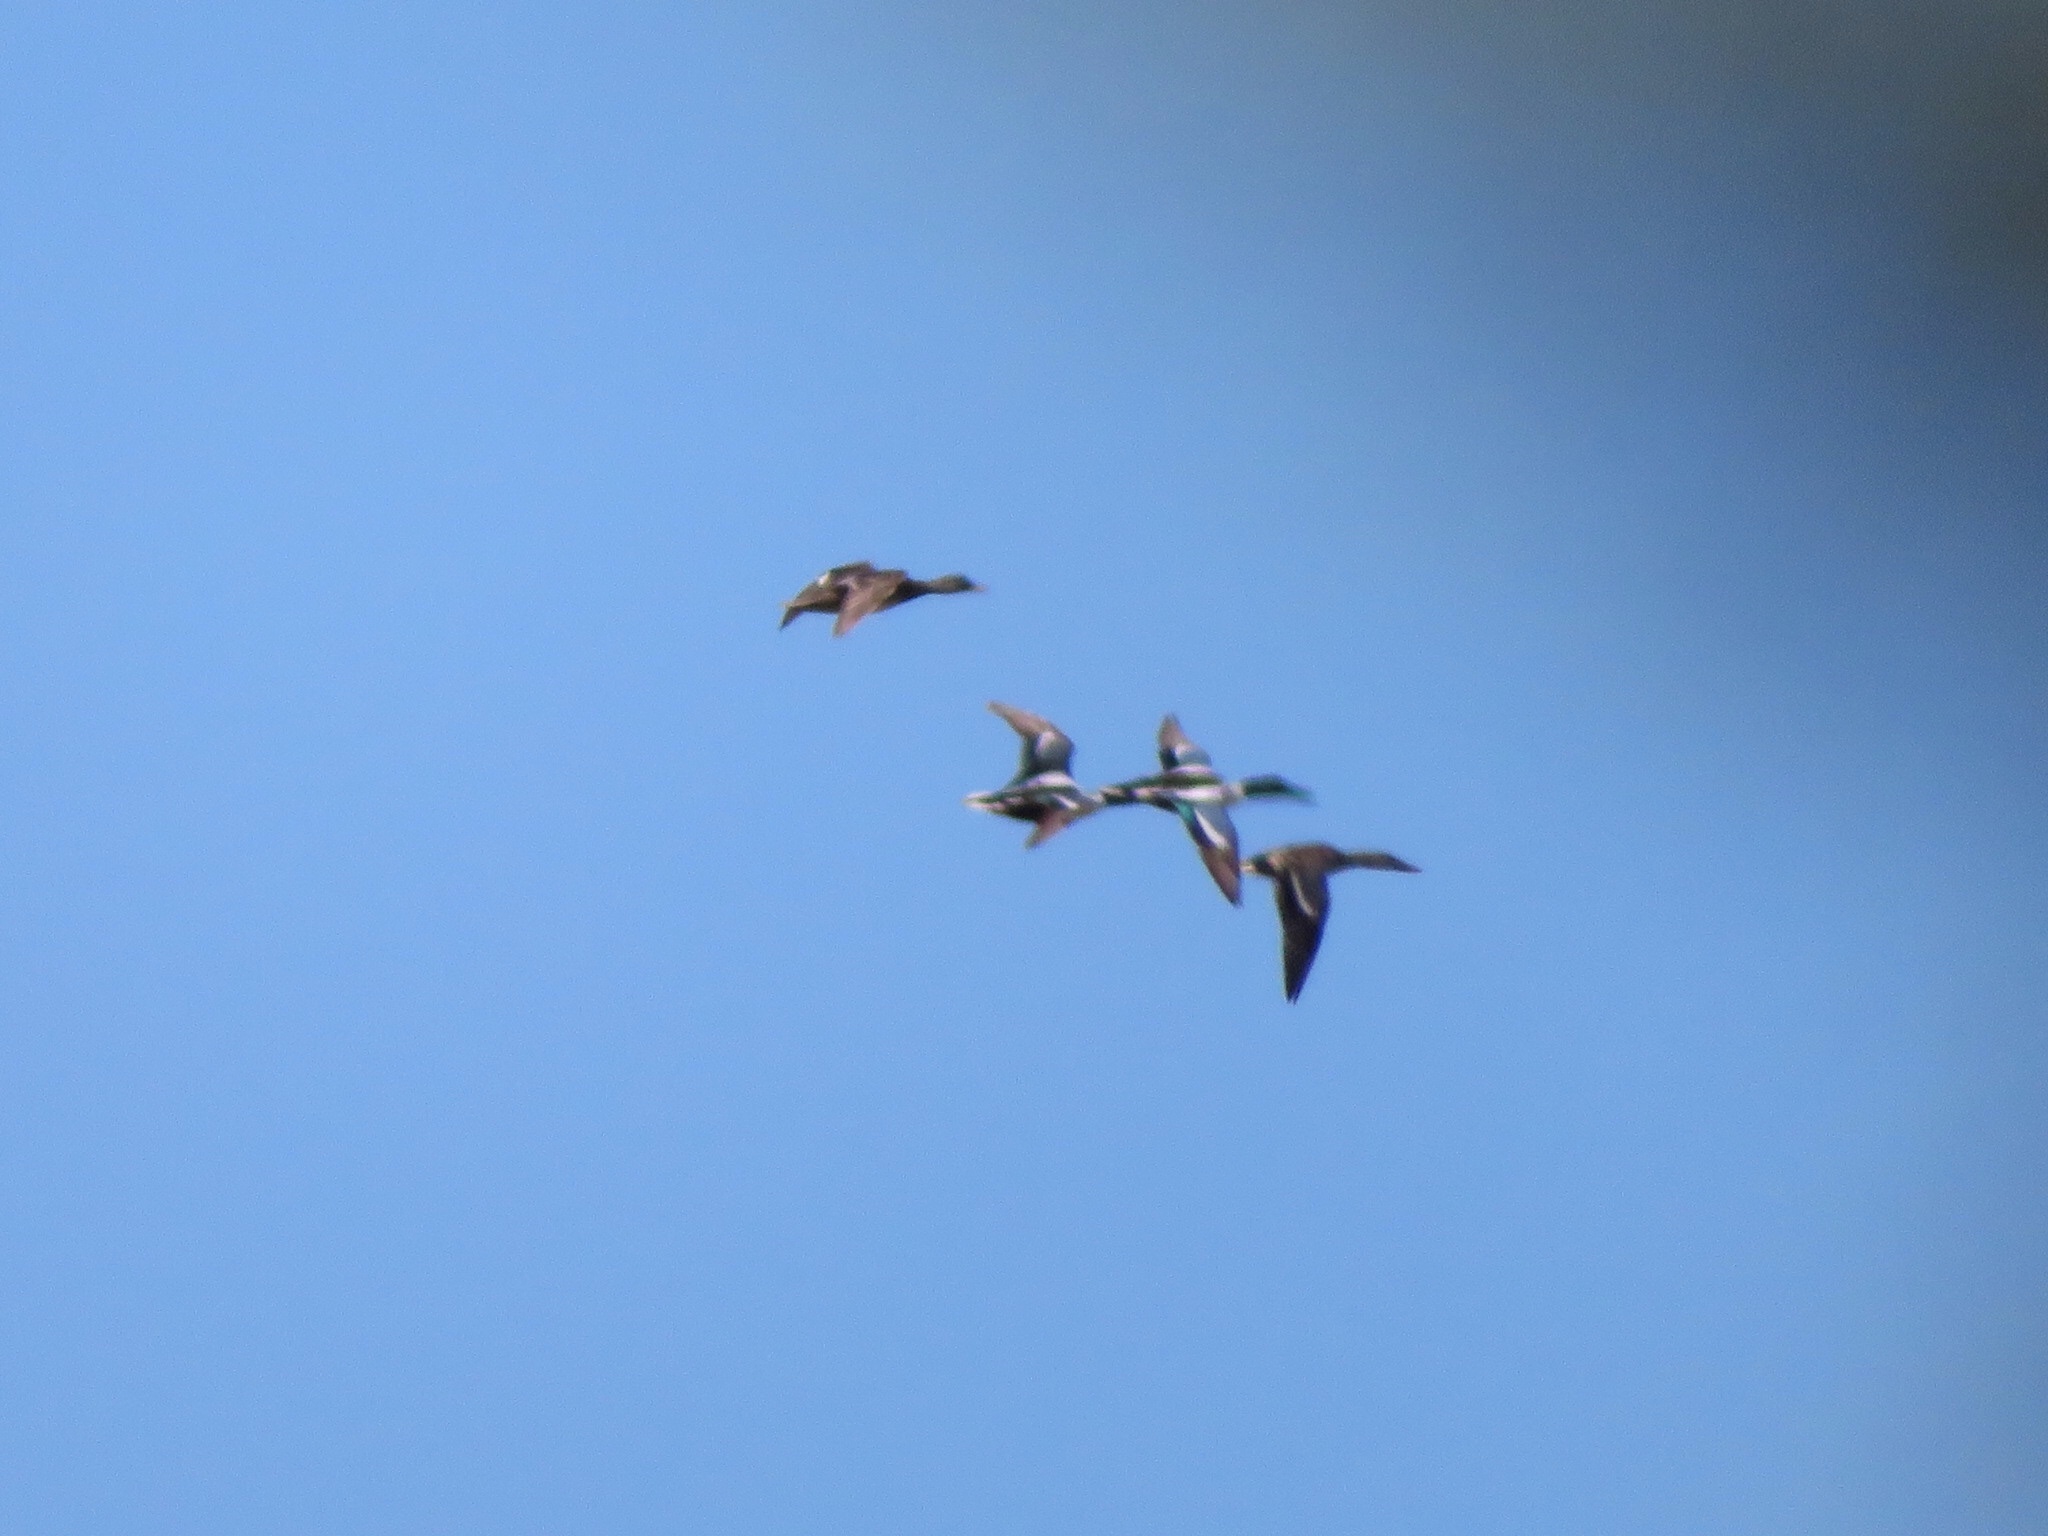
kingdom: Animalia
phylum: Chordata
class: Aves
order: Anseriformes
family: Anatidae
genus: Spatula
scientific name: Spatula clypeata
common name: Northern shoveler
